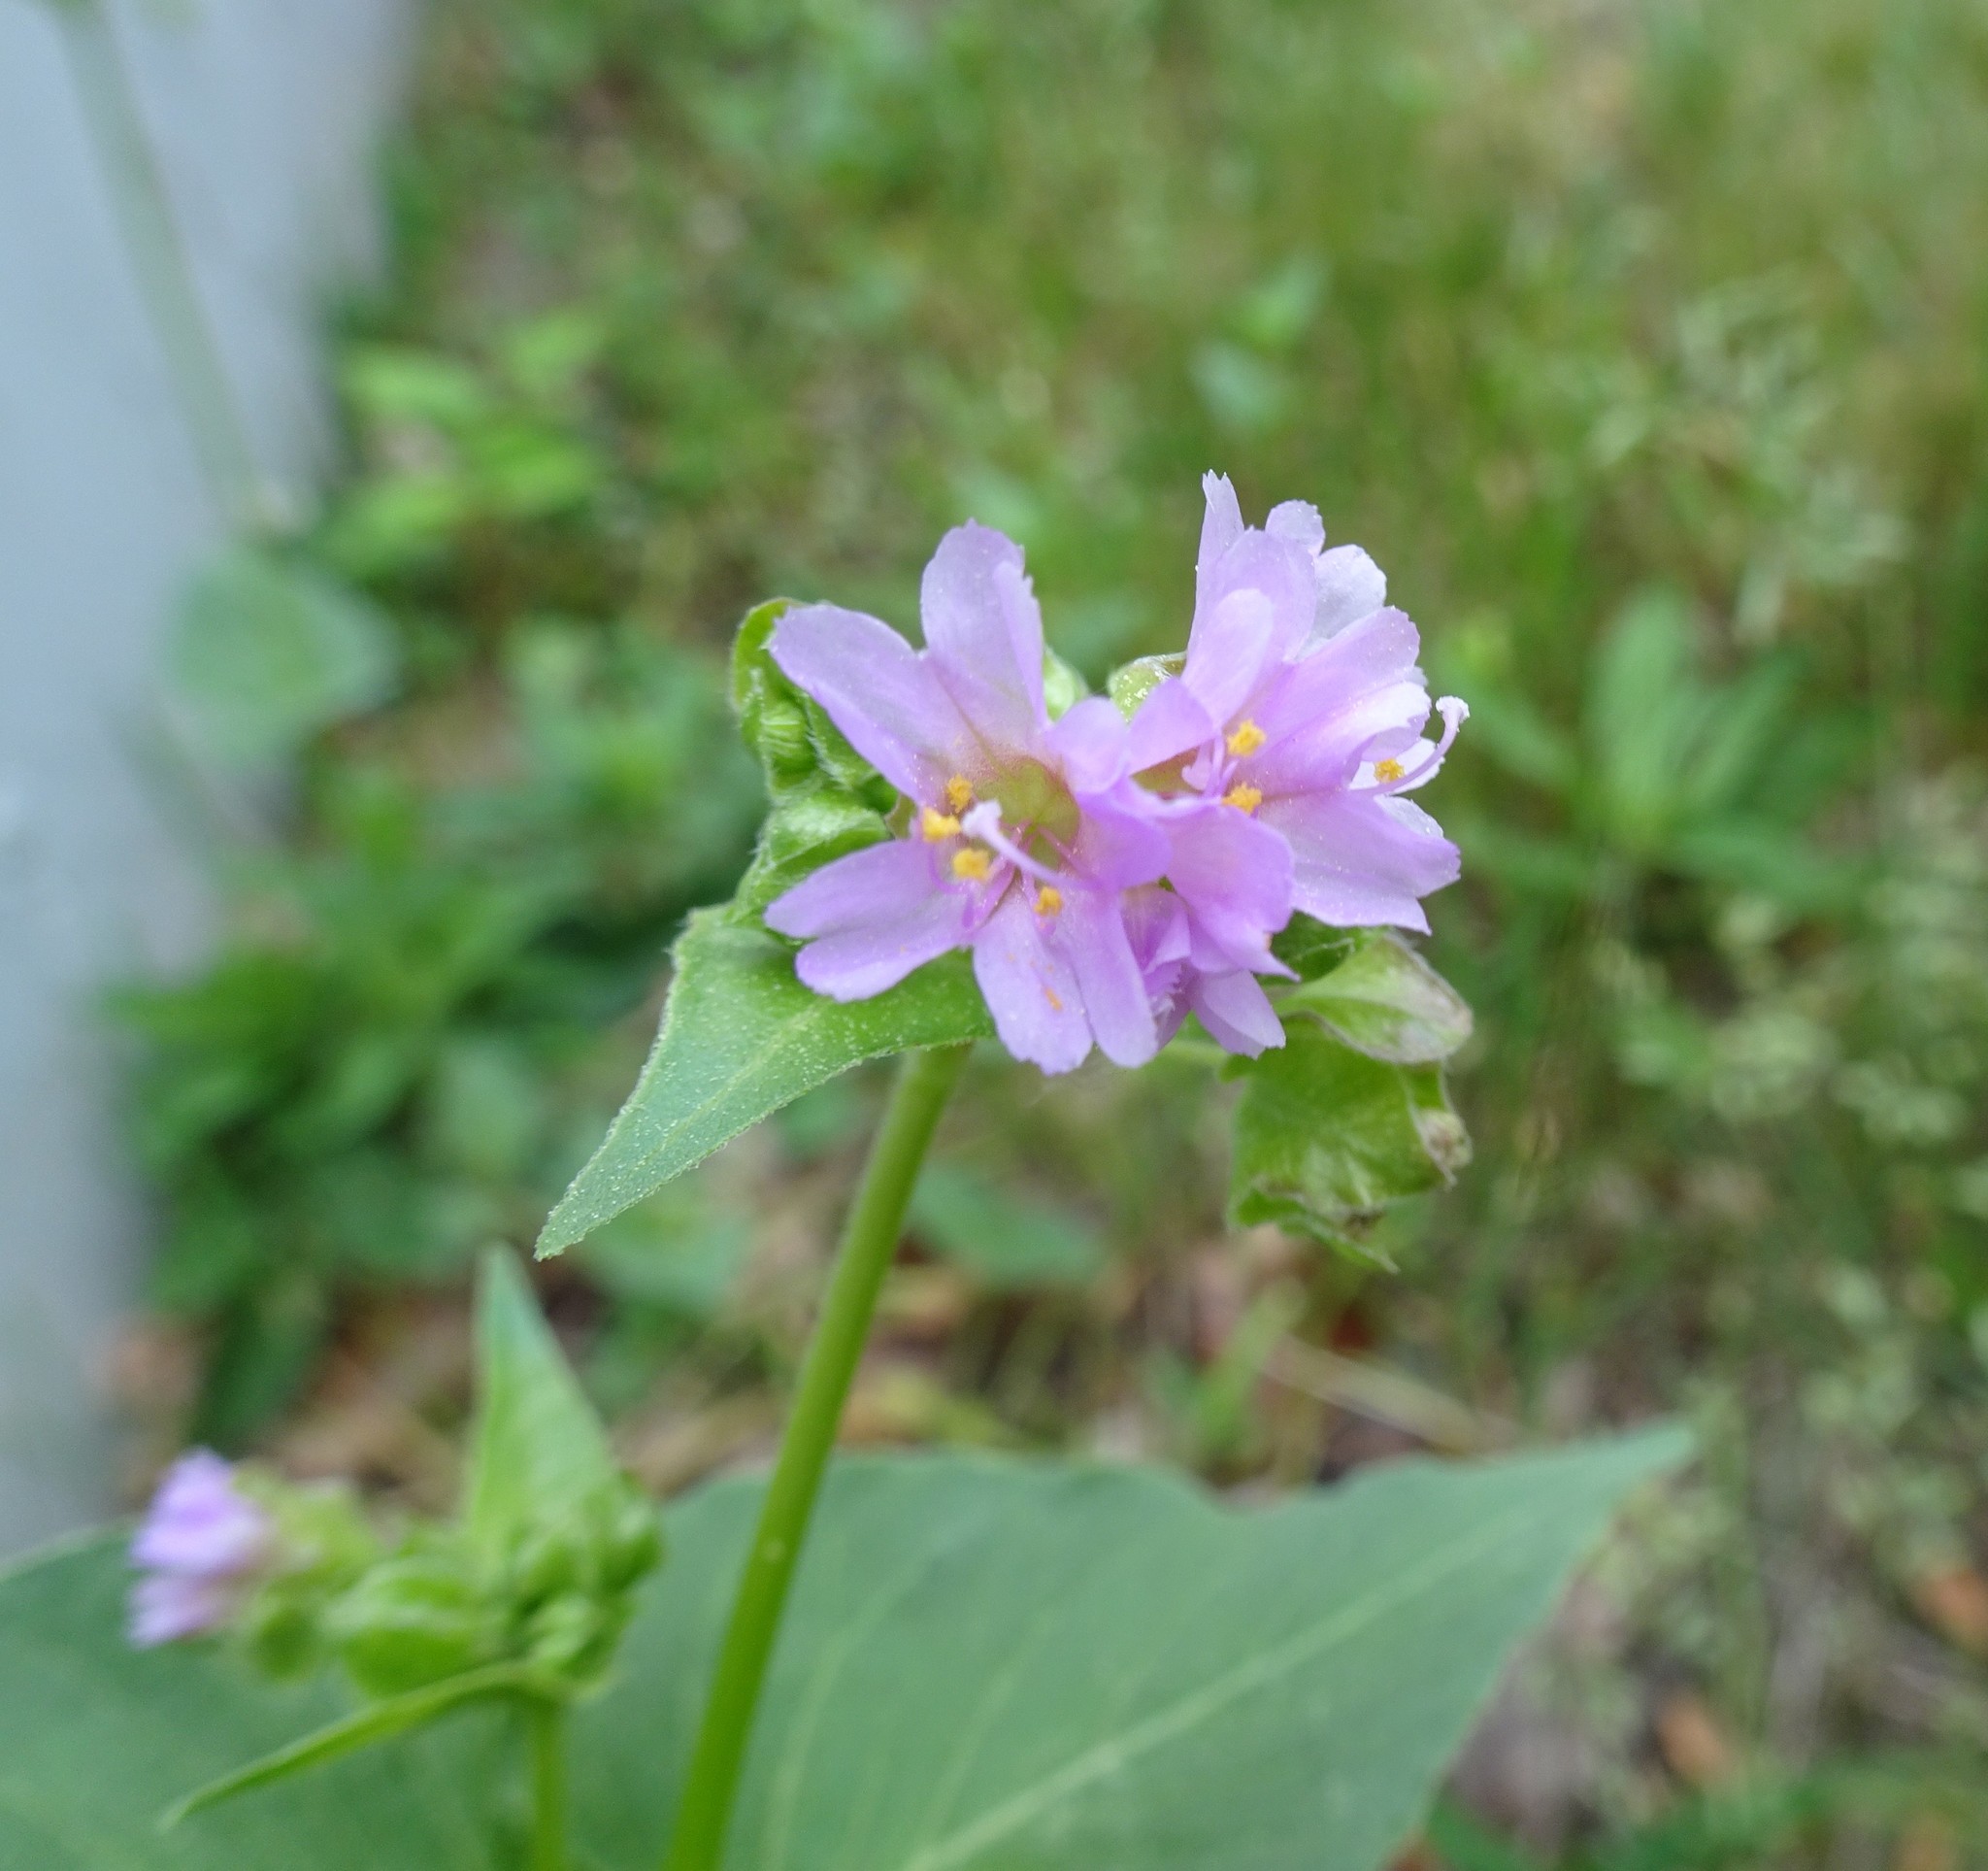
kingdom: Plantae
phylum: Tracheophyta
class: Magnoliopsida
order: Caryophyllales
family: Nyctaginaceae
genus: Mirabilis
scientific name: Mirabilis nyctaginea
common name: Umbrella wort
